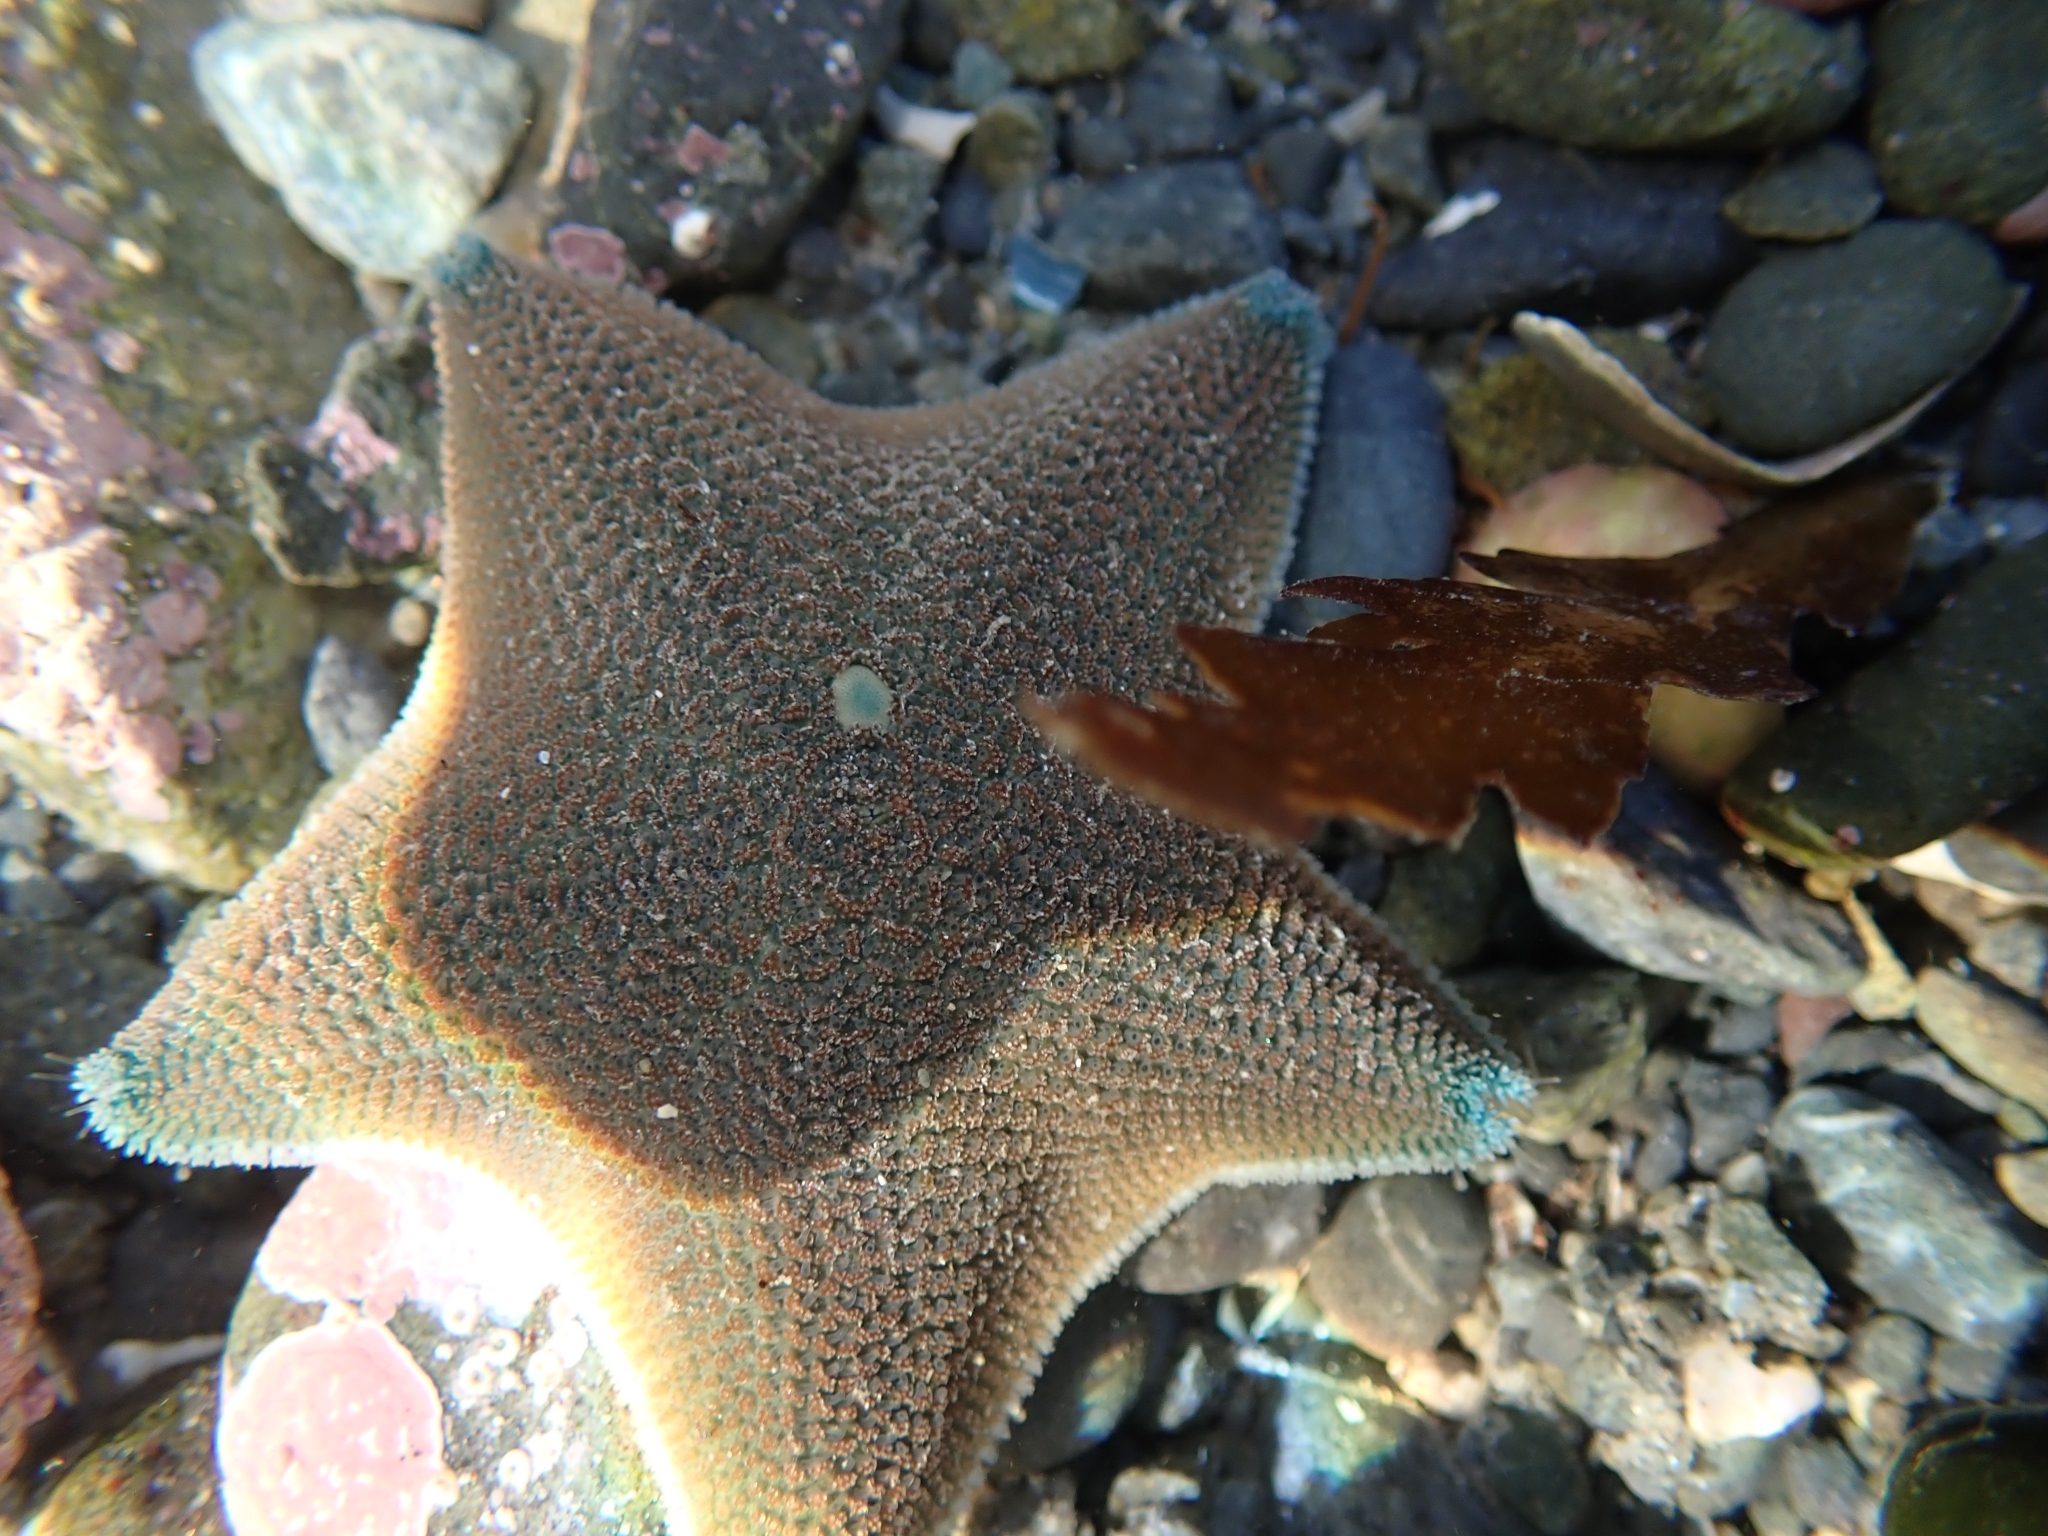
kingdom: Animalia
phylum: Echinodermata
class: Asteroidea
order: Valvatida
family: Asterinidae
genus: Patiriella
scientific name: Patiriella regularis
